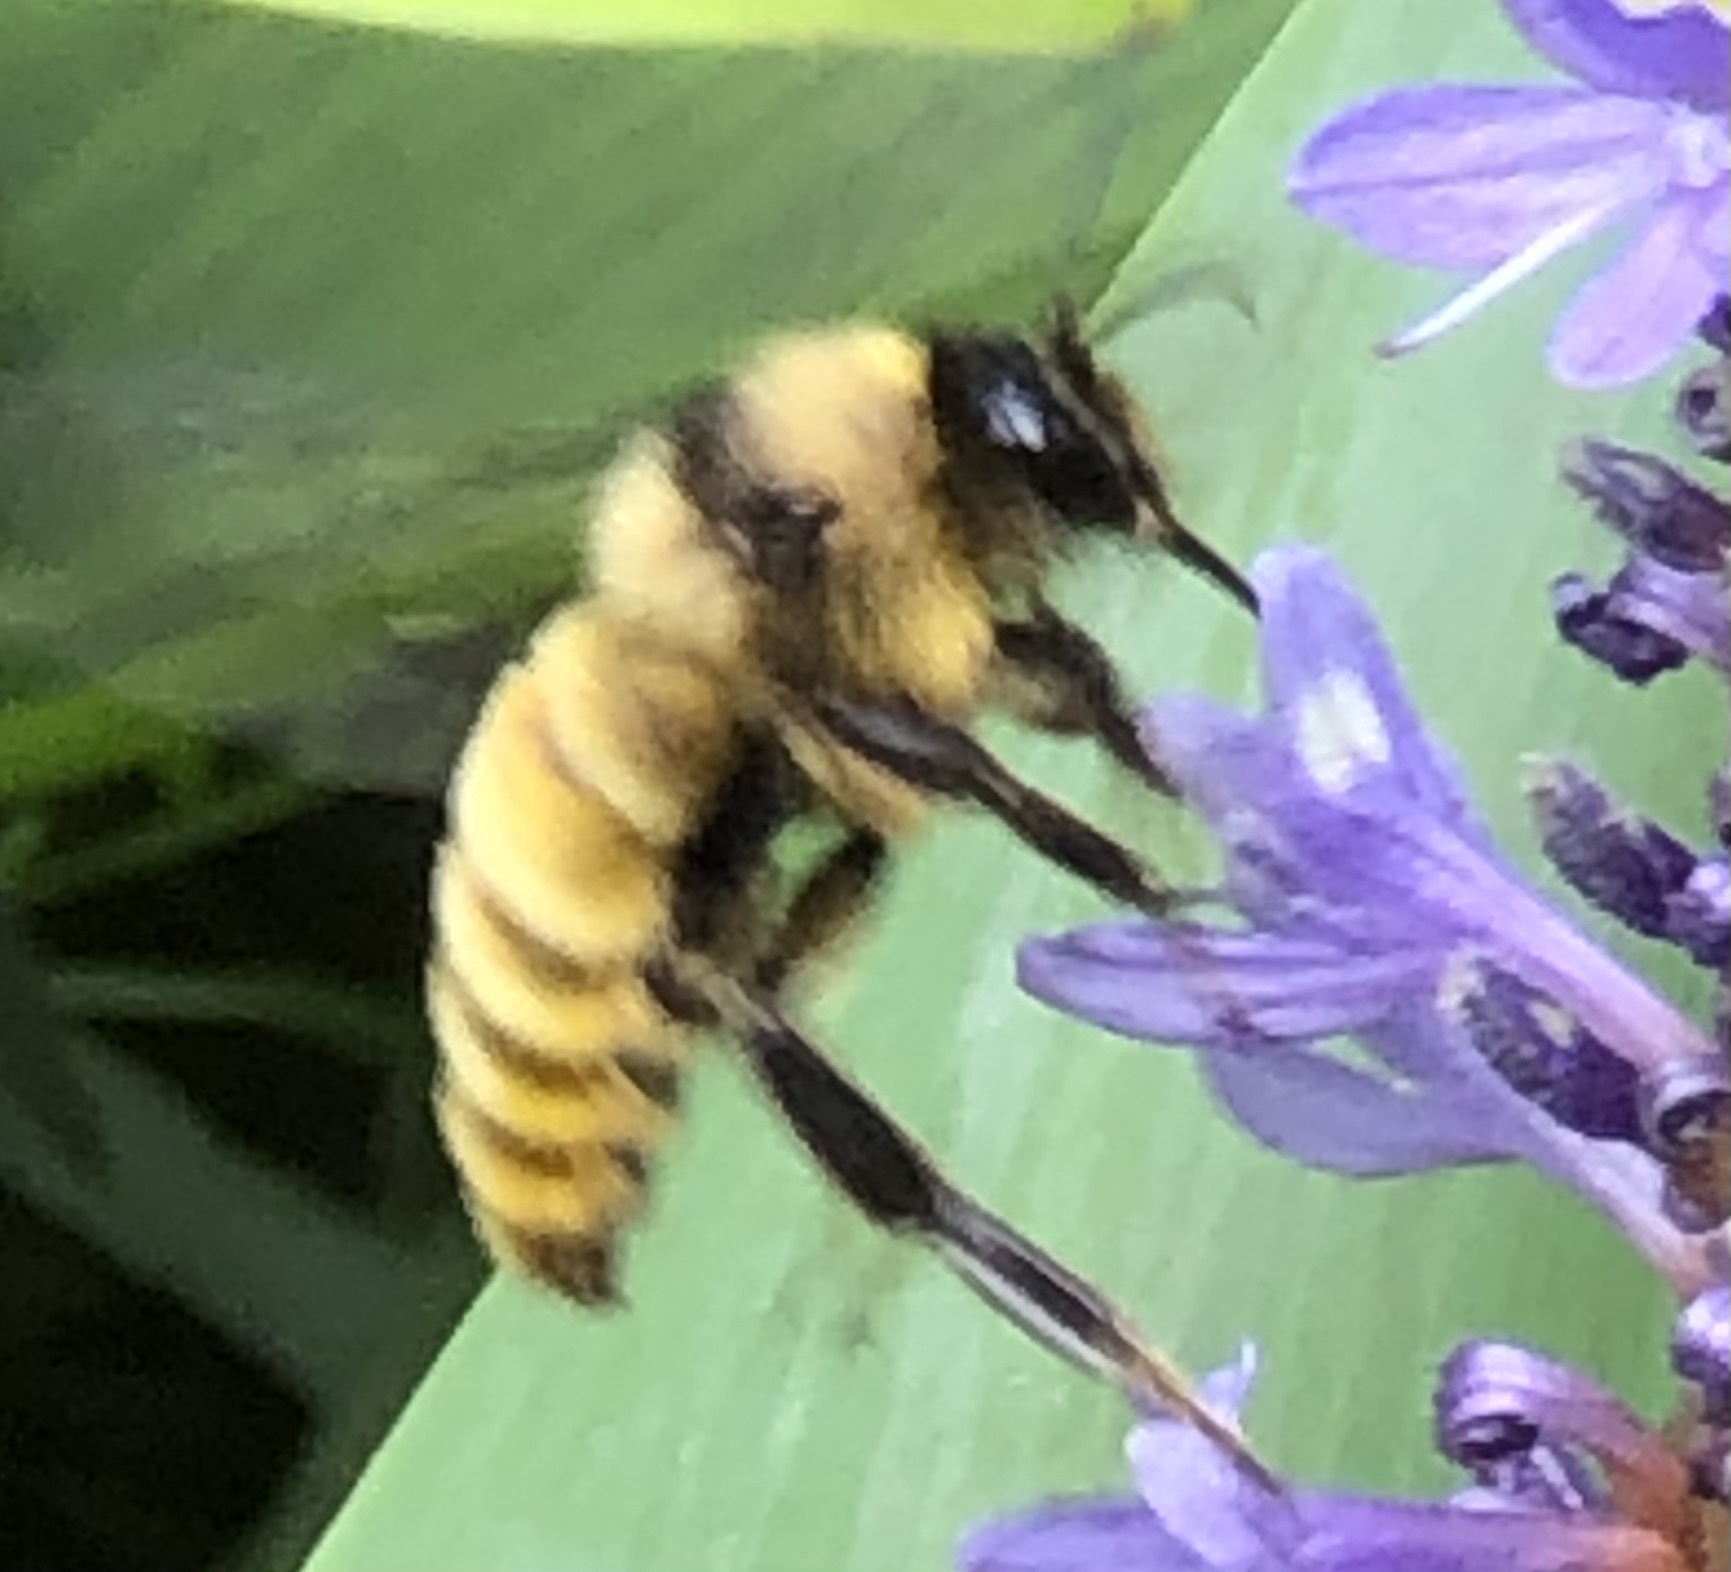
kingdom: Animalia
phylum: Arthropoda
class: Insecta
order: Hymenoptera
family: Apidae
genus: Bombus
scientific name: Bombus pensylvanicus
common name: Bumble bee
